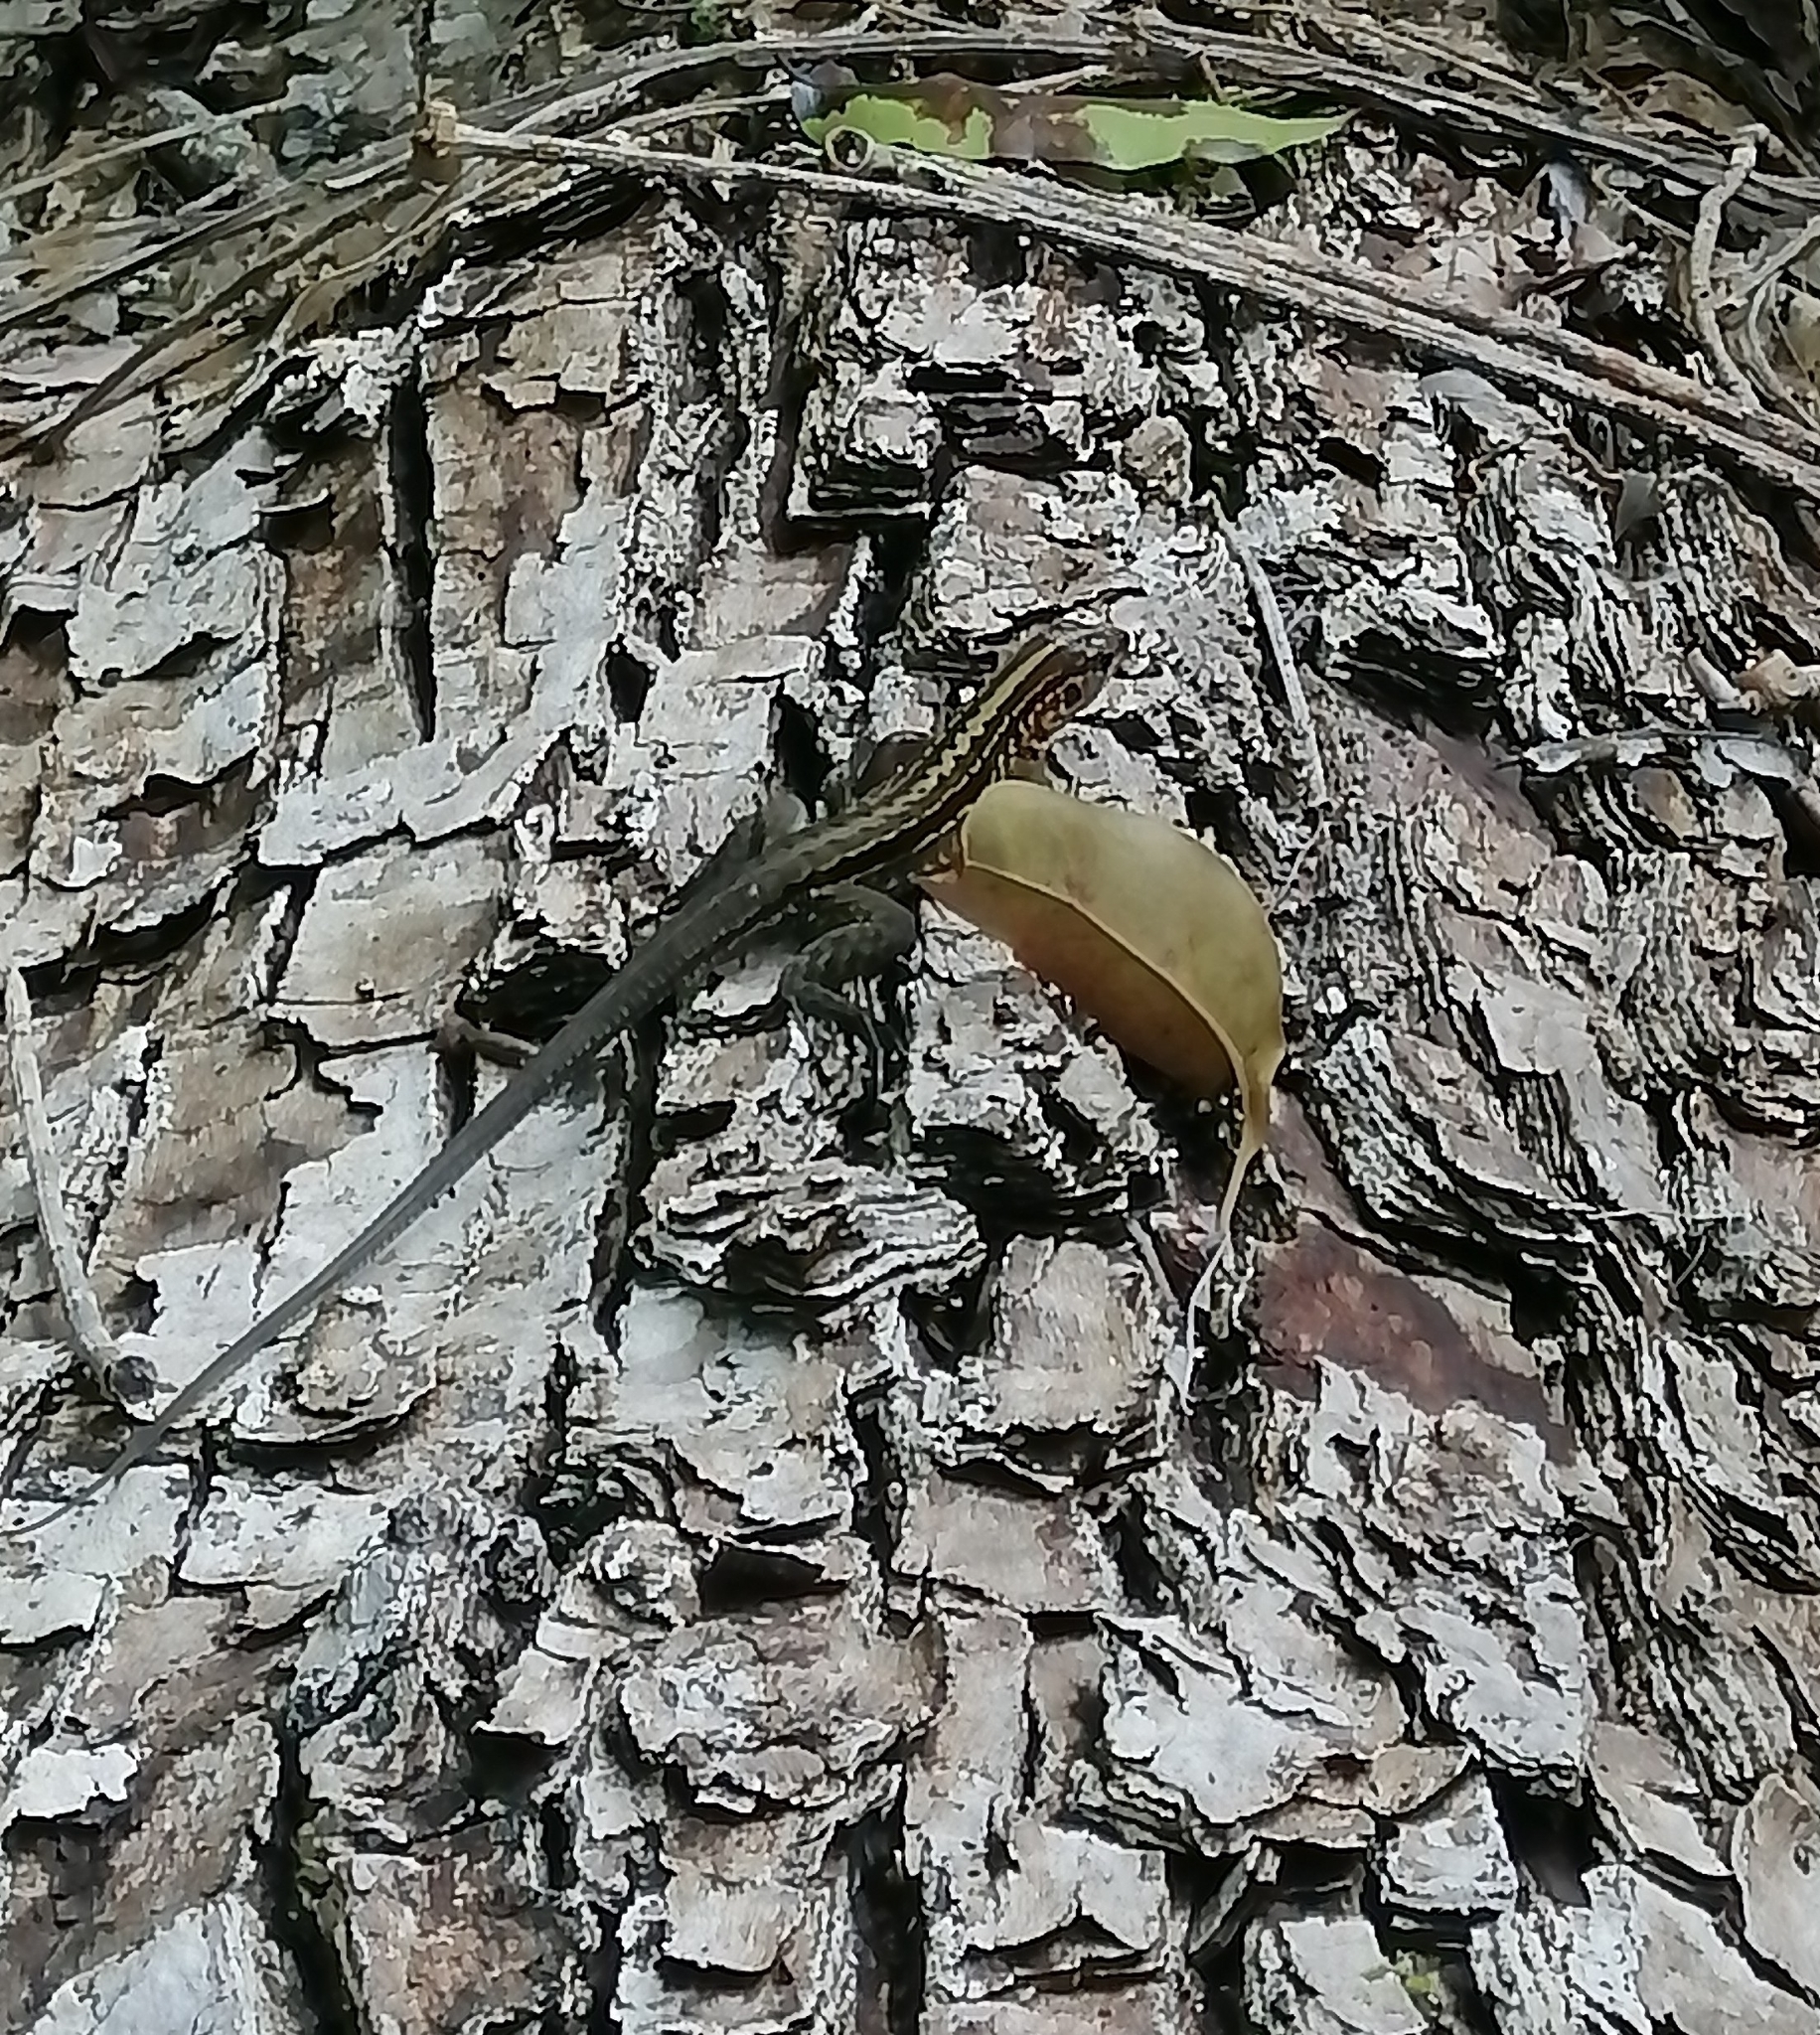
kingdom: Animalia
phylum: Chordata
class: Squamata
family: Teiidae
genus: Holcosus
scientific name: Holcosus festivus
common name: Middle american ameiva
